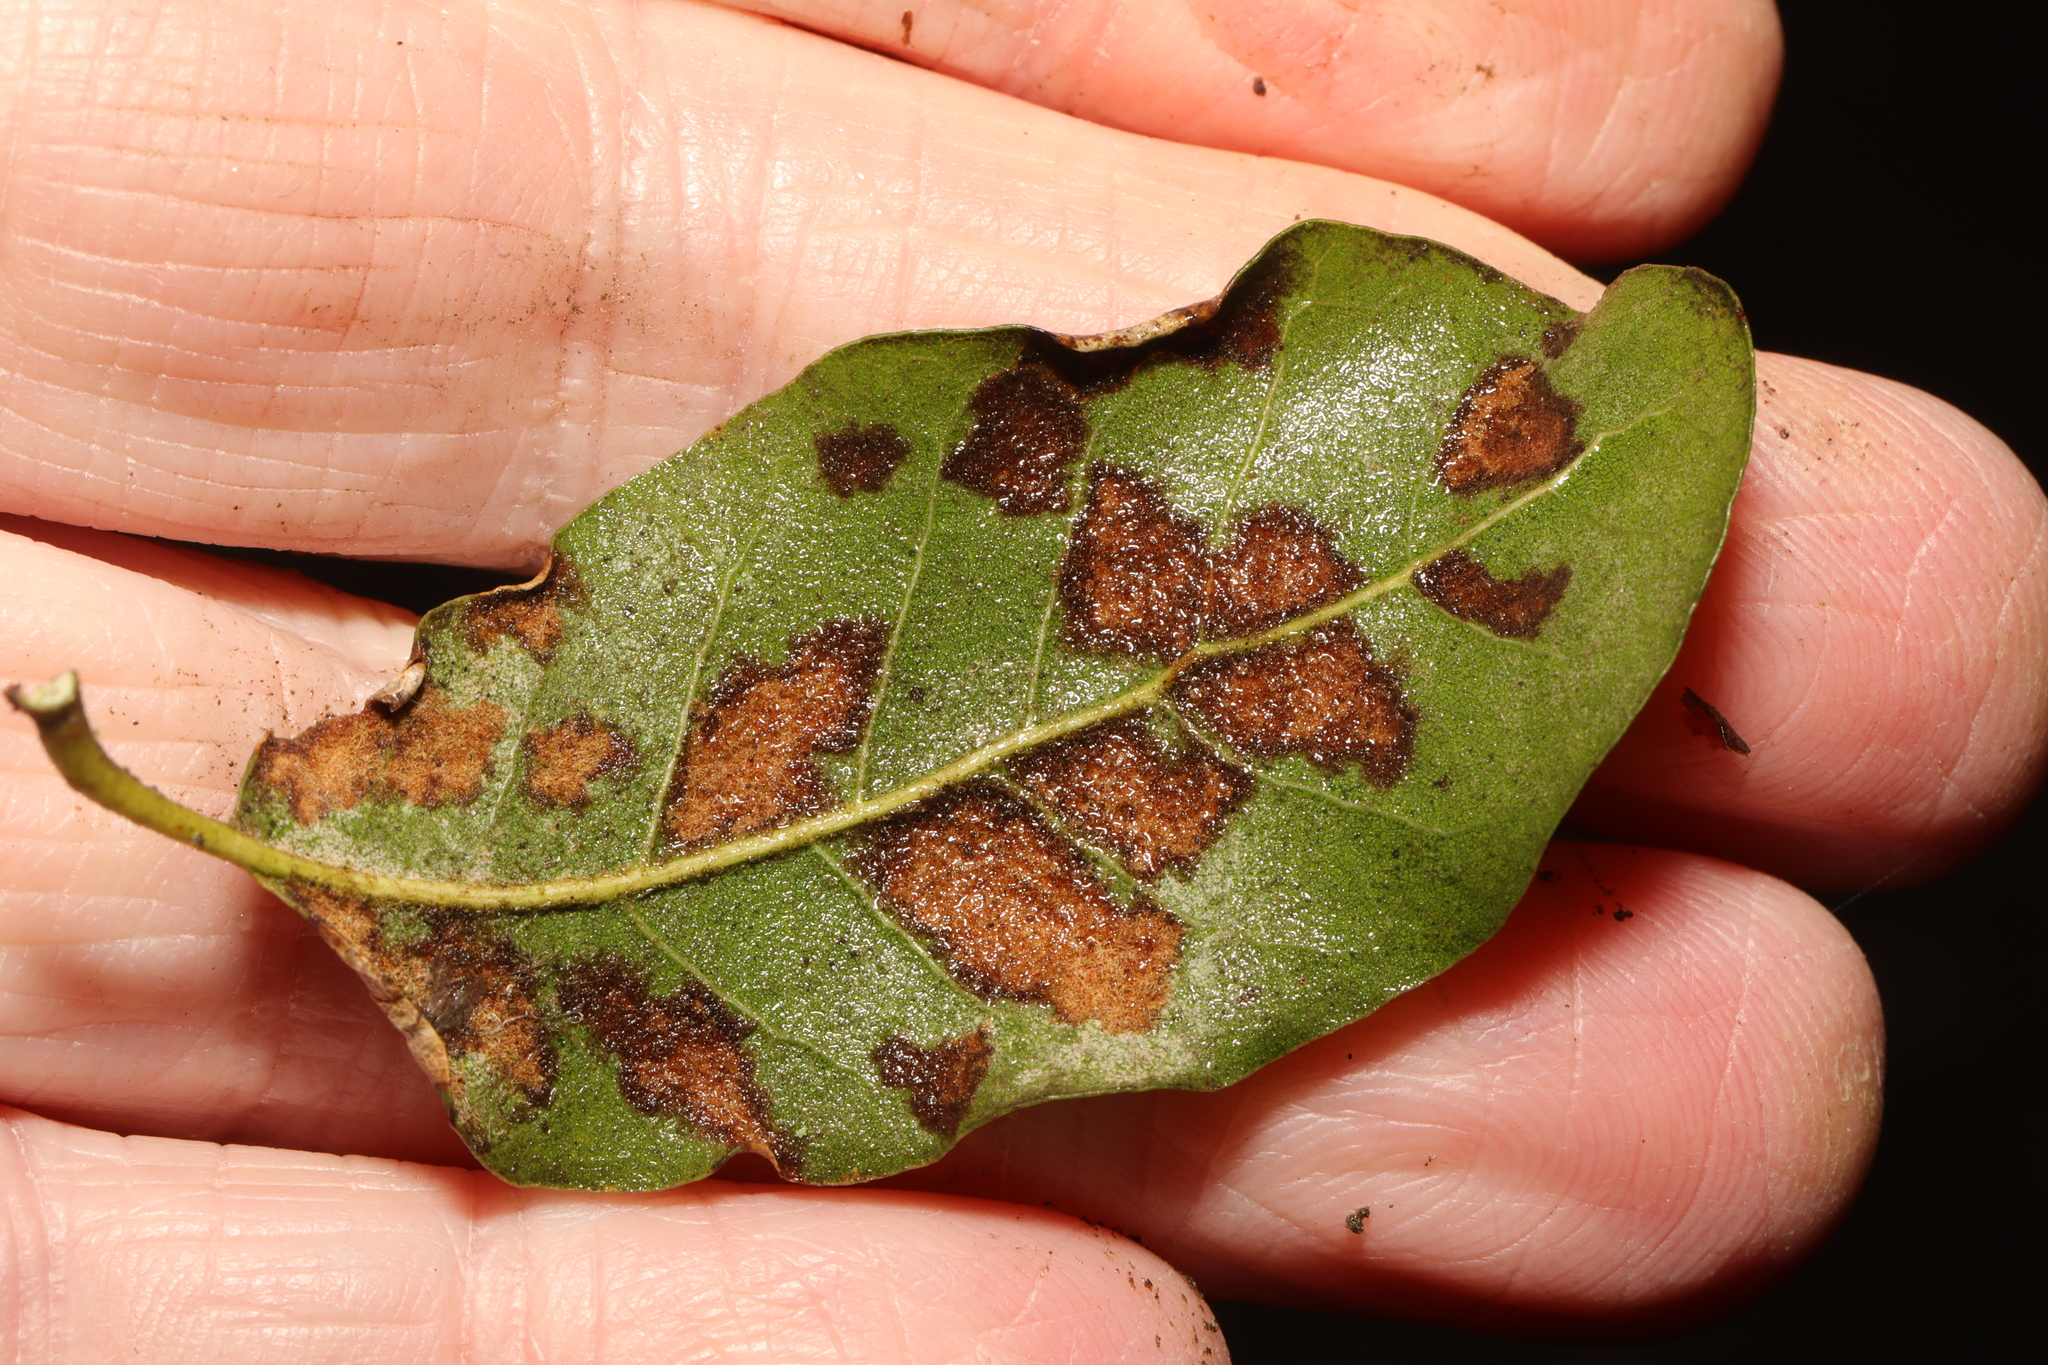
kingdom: Animalia
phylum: Arthropoda
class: Arachnida
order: Trombidiformes
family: Eriophyidae
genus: Aceria
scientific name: Aceria ilicis
